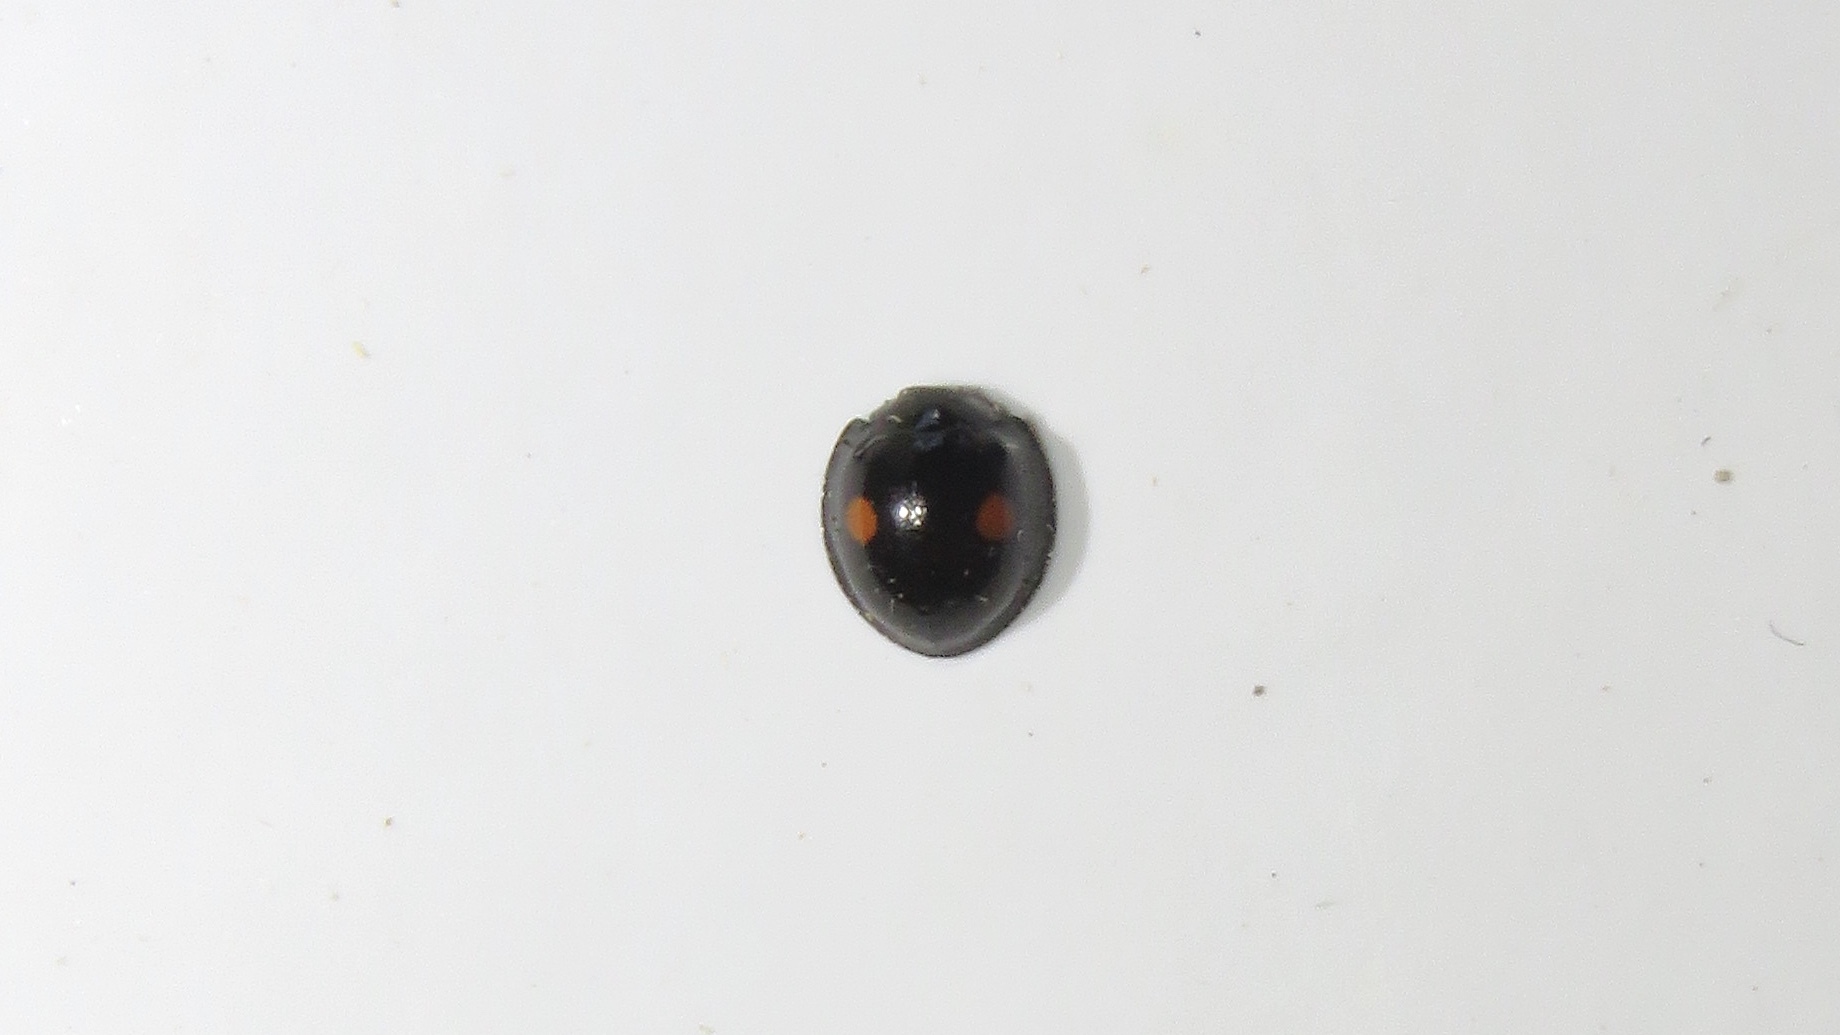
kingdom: Animalia
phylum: Arthropoda
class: Insecta
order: Coleoptera
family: Coccinellidae
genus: Chilocorus
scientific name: Chilocorus stigma
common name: Twicestabbed lady beetle
